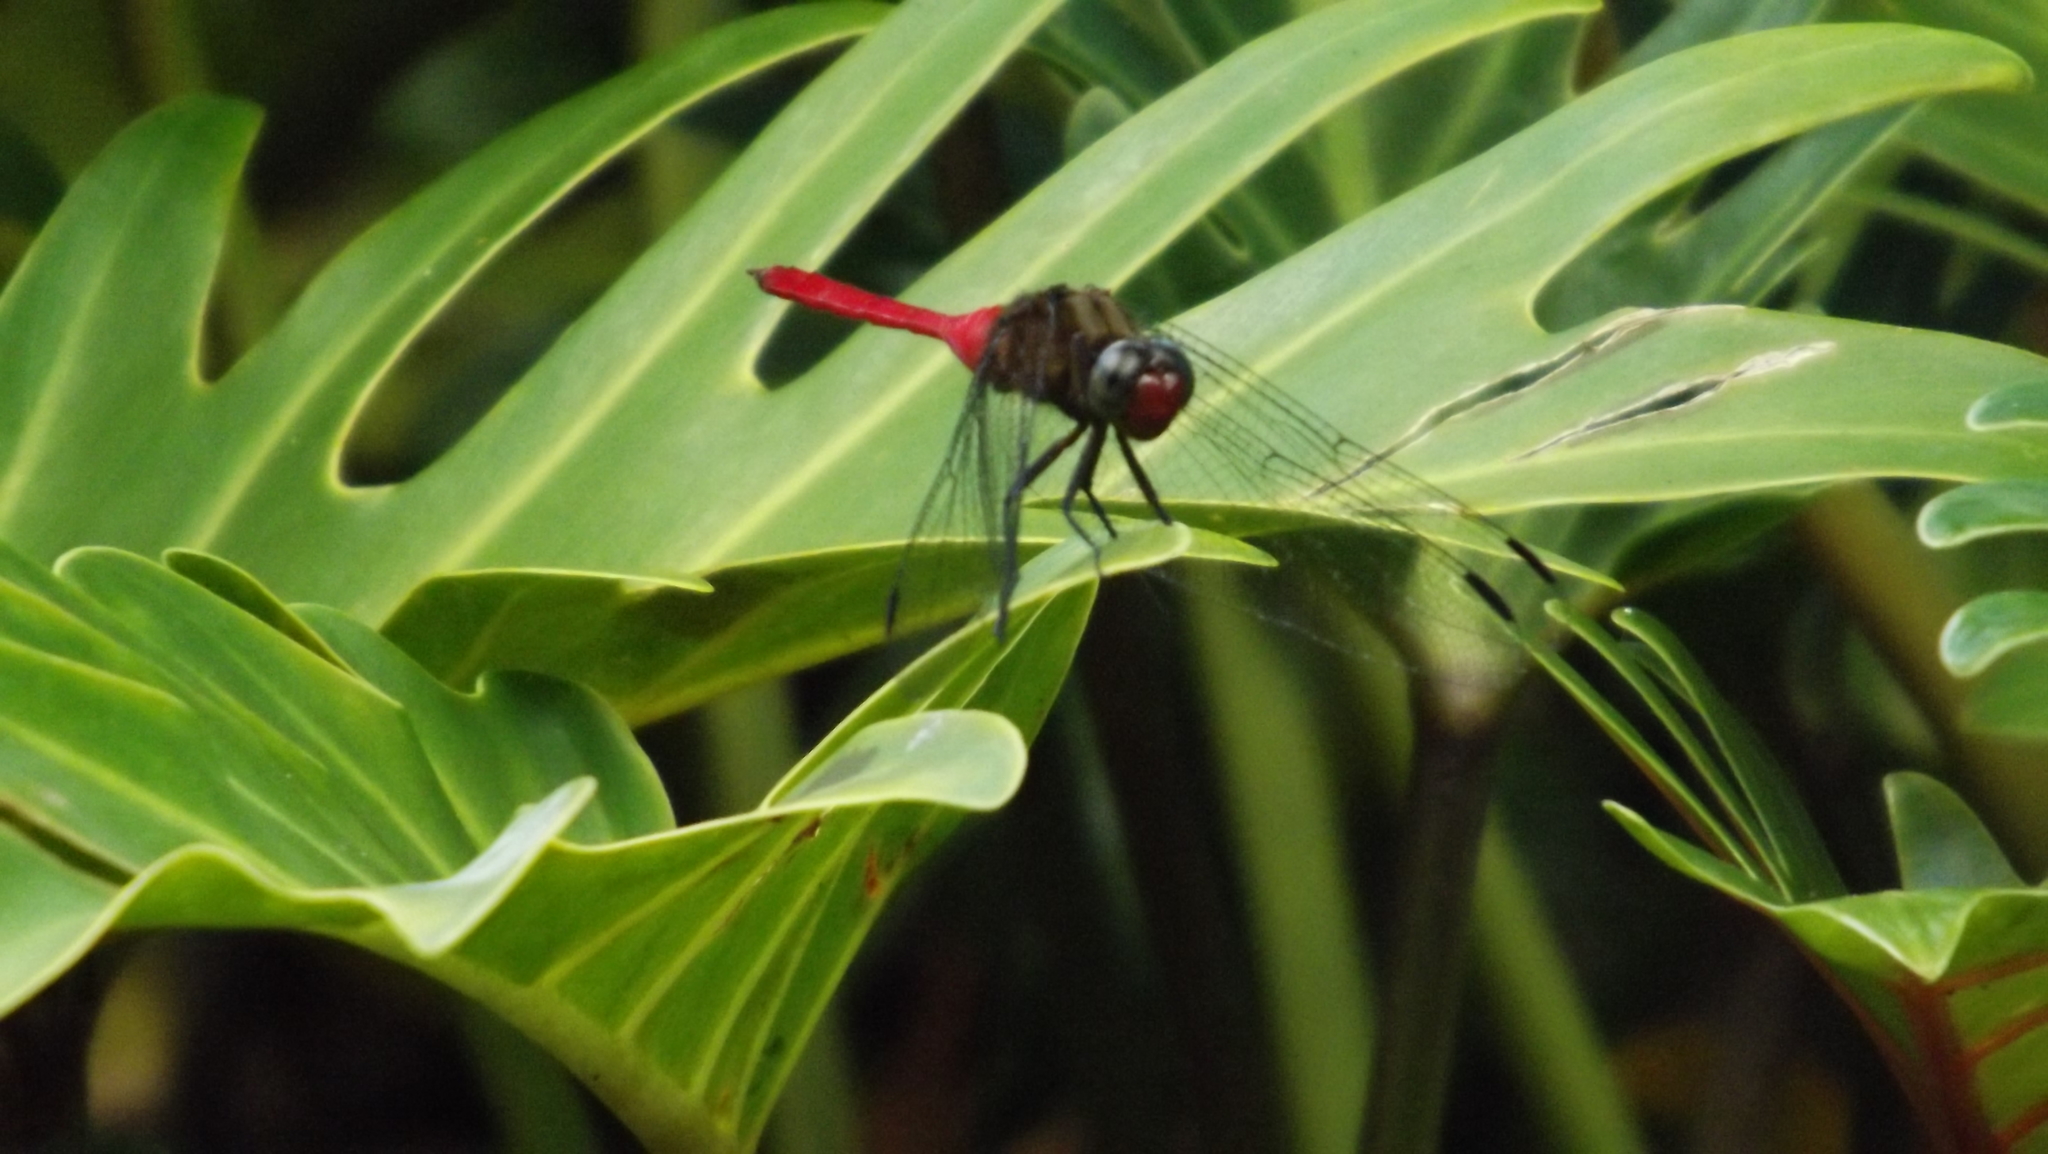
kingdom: Animalia
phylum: Arthropoda
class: Insecta
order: Odonata
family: Libellulidae
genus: Orthetrum
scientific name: Orthetrum villosovittatum
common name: Firery skimmer
